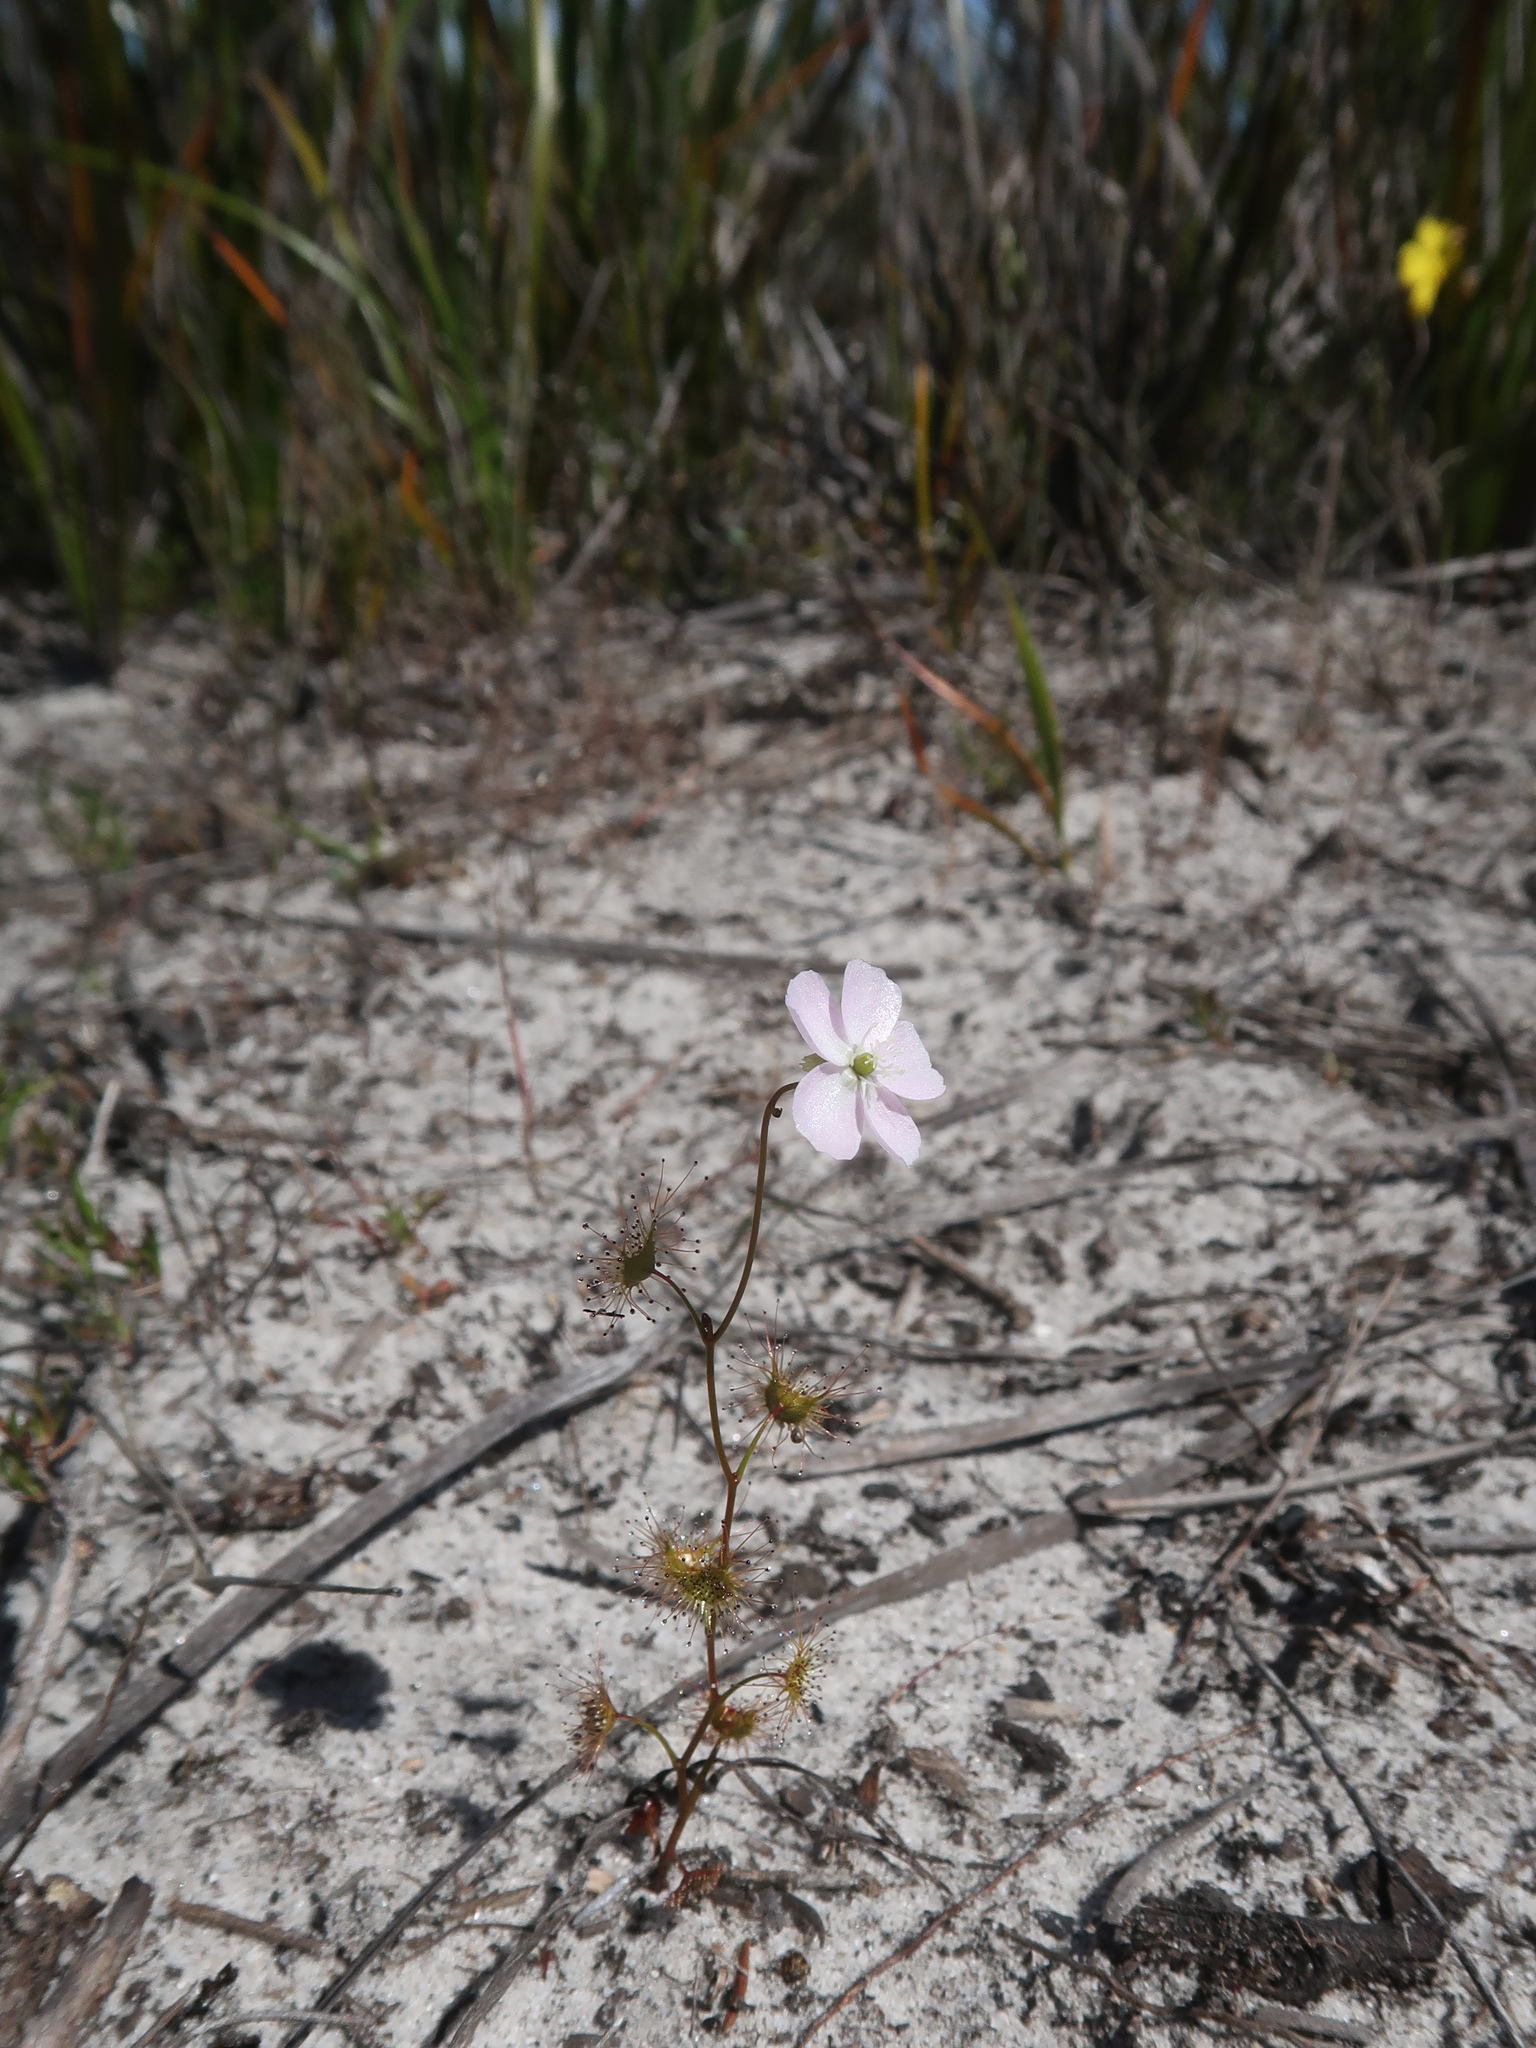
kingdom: Plantae
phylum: Tracheophyta
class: Magnoliopsida
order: Caryophyllales
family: Droseraceae
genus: Drosera
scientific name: Drosera peltata
